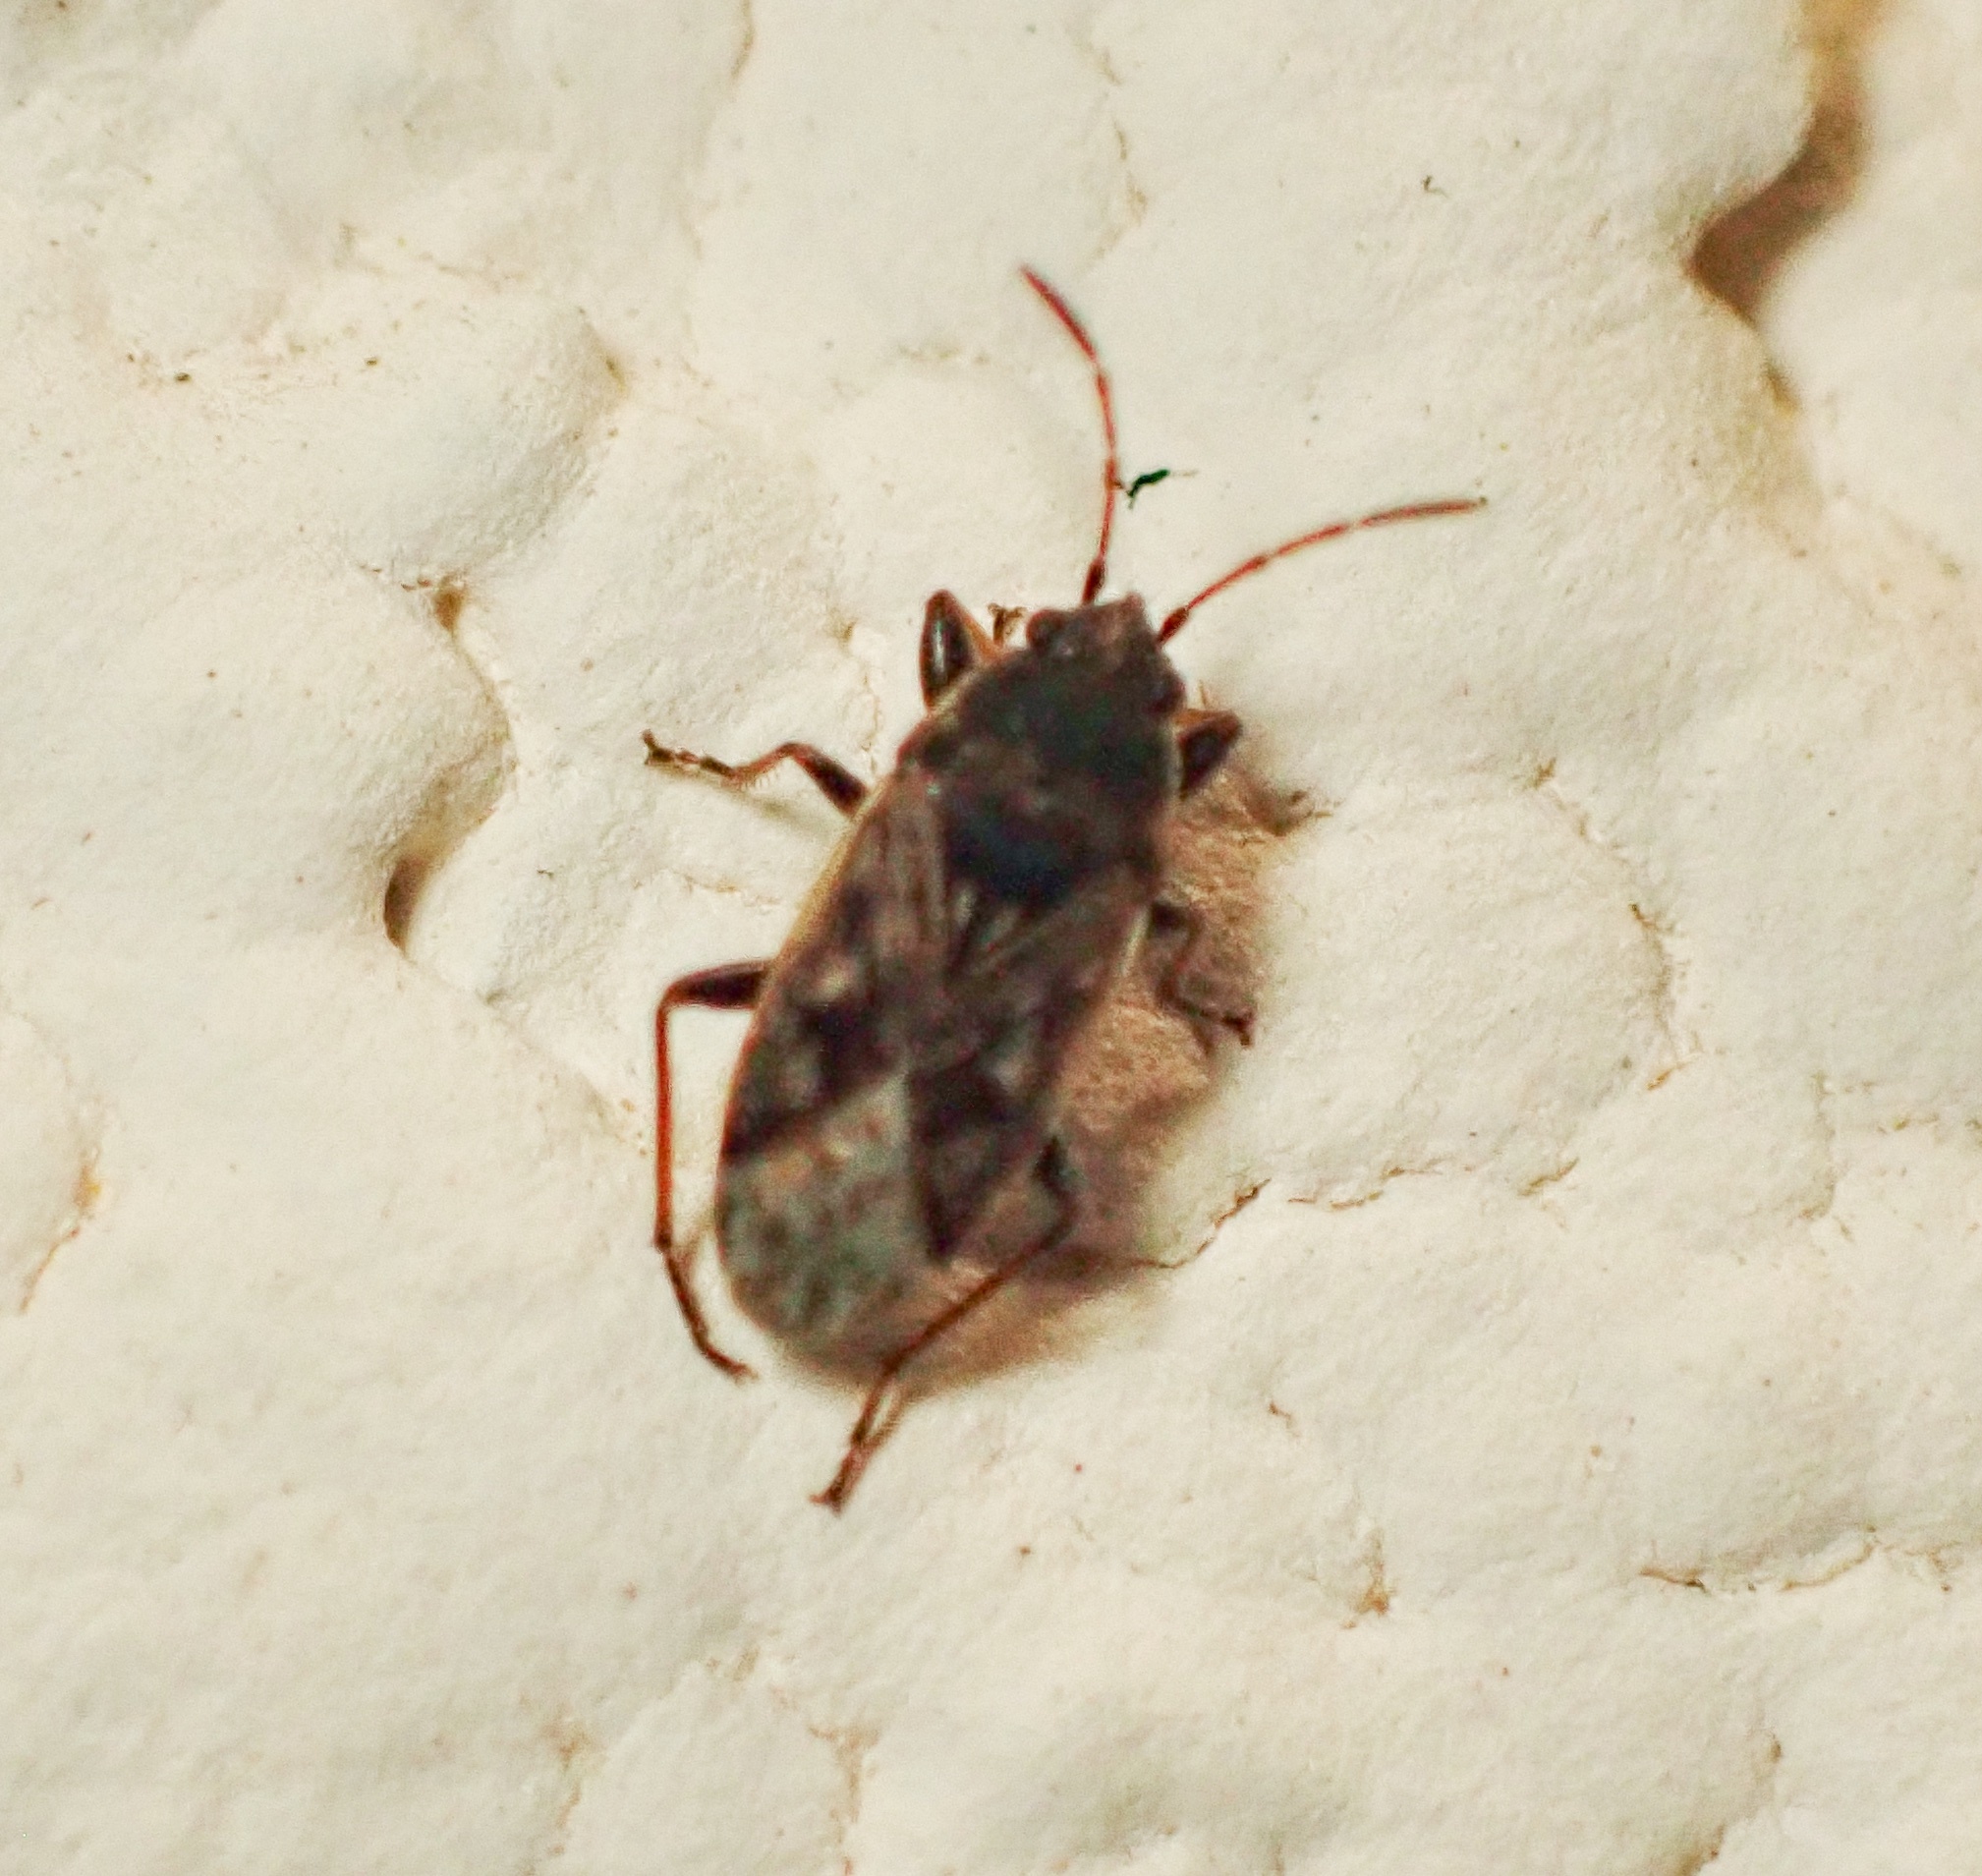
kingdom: Animalia
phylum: Arthropoda
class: Insecta
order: Hemiptera
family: Rhyparochromidae
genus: Sphragisticus
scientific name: Sphragisticus nebulosus
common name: Dirt-colored seed bug
